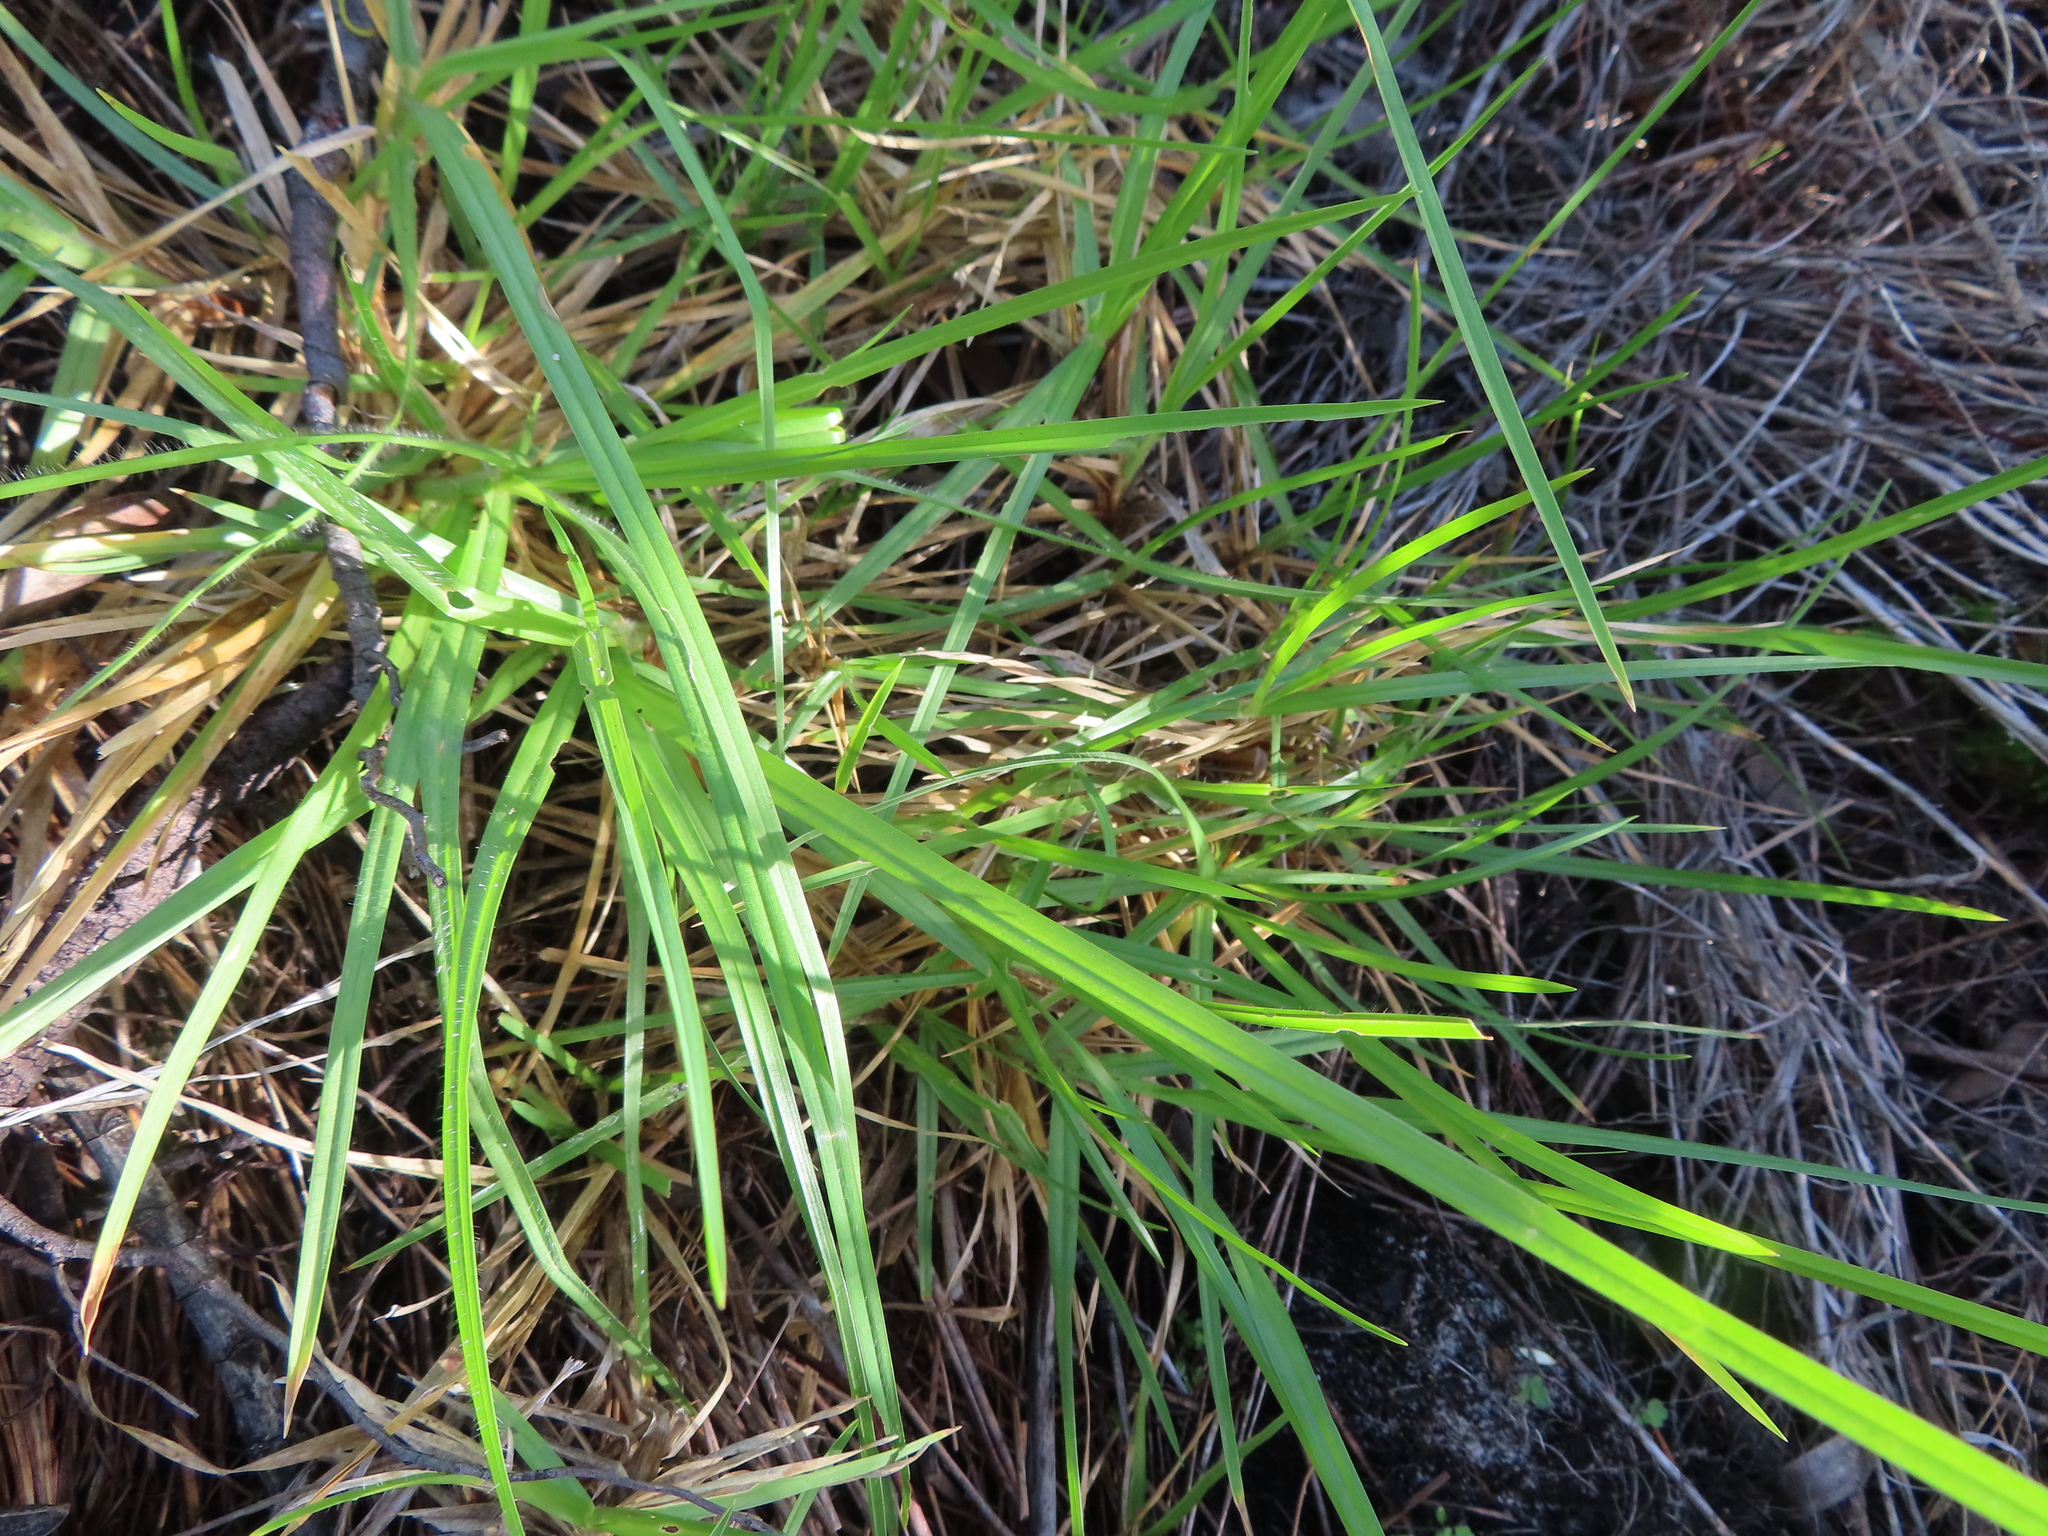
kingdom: Plantae
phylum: Tracheophyta
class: Liliopsida
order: Poales
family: Poaceae
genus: Cenchrus
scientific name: Cenchrus clandestinus
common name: Kikuyugrass
